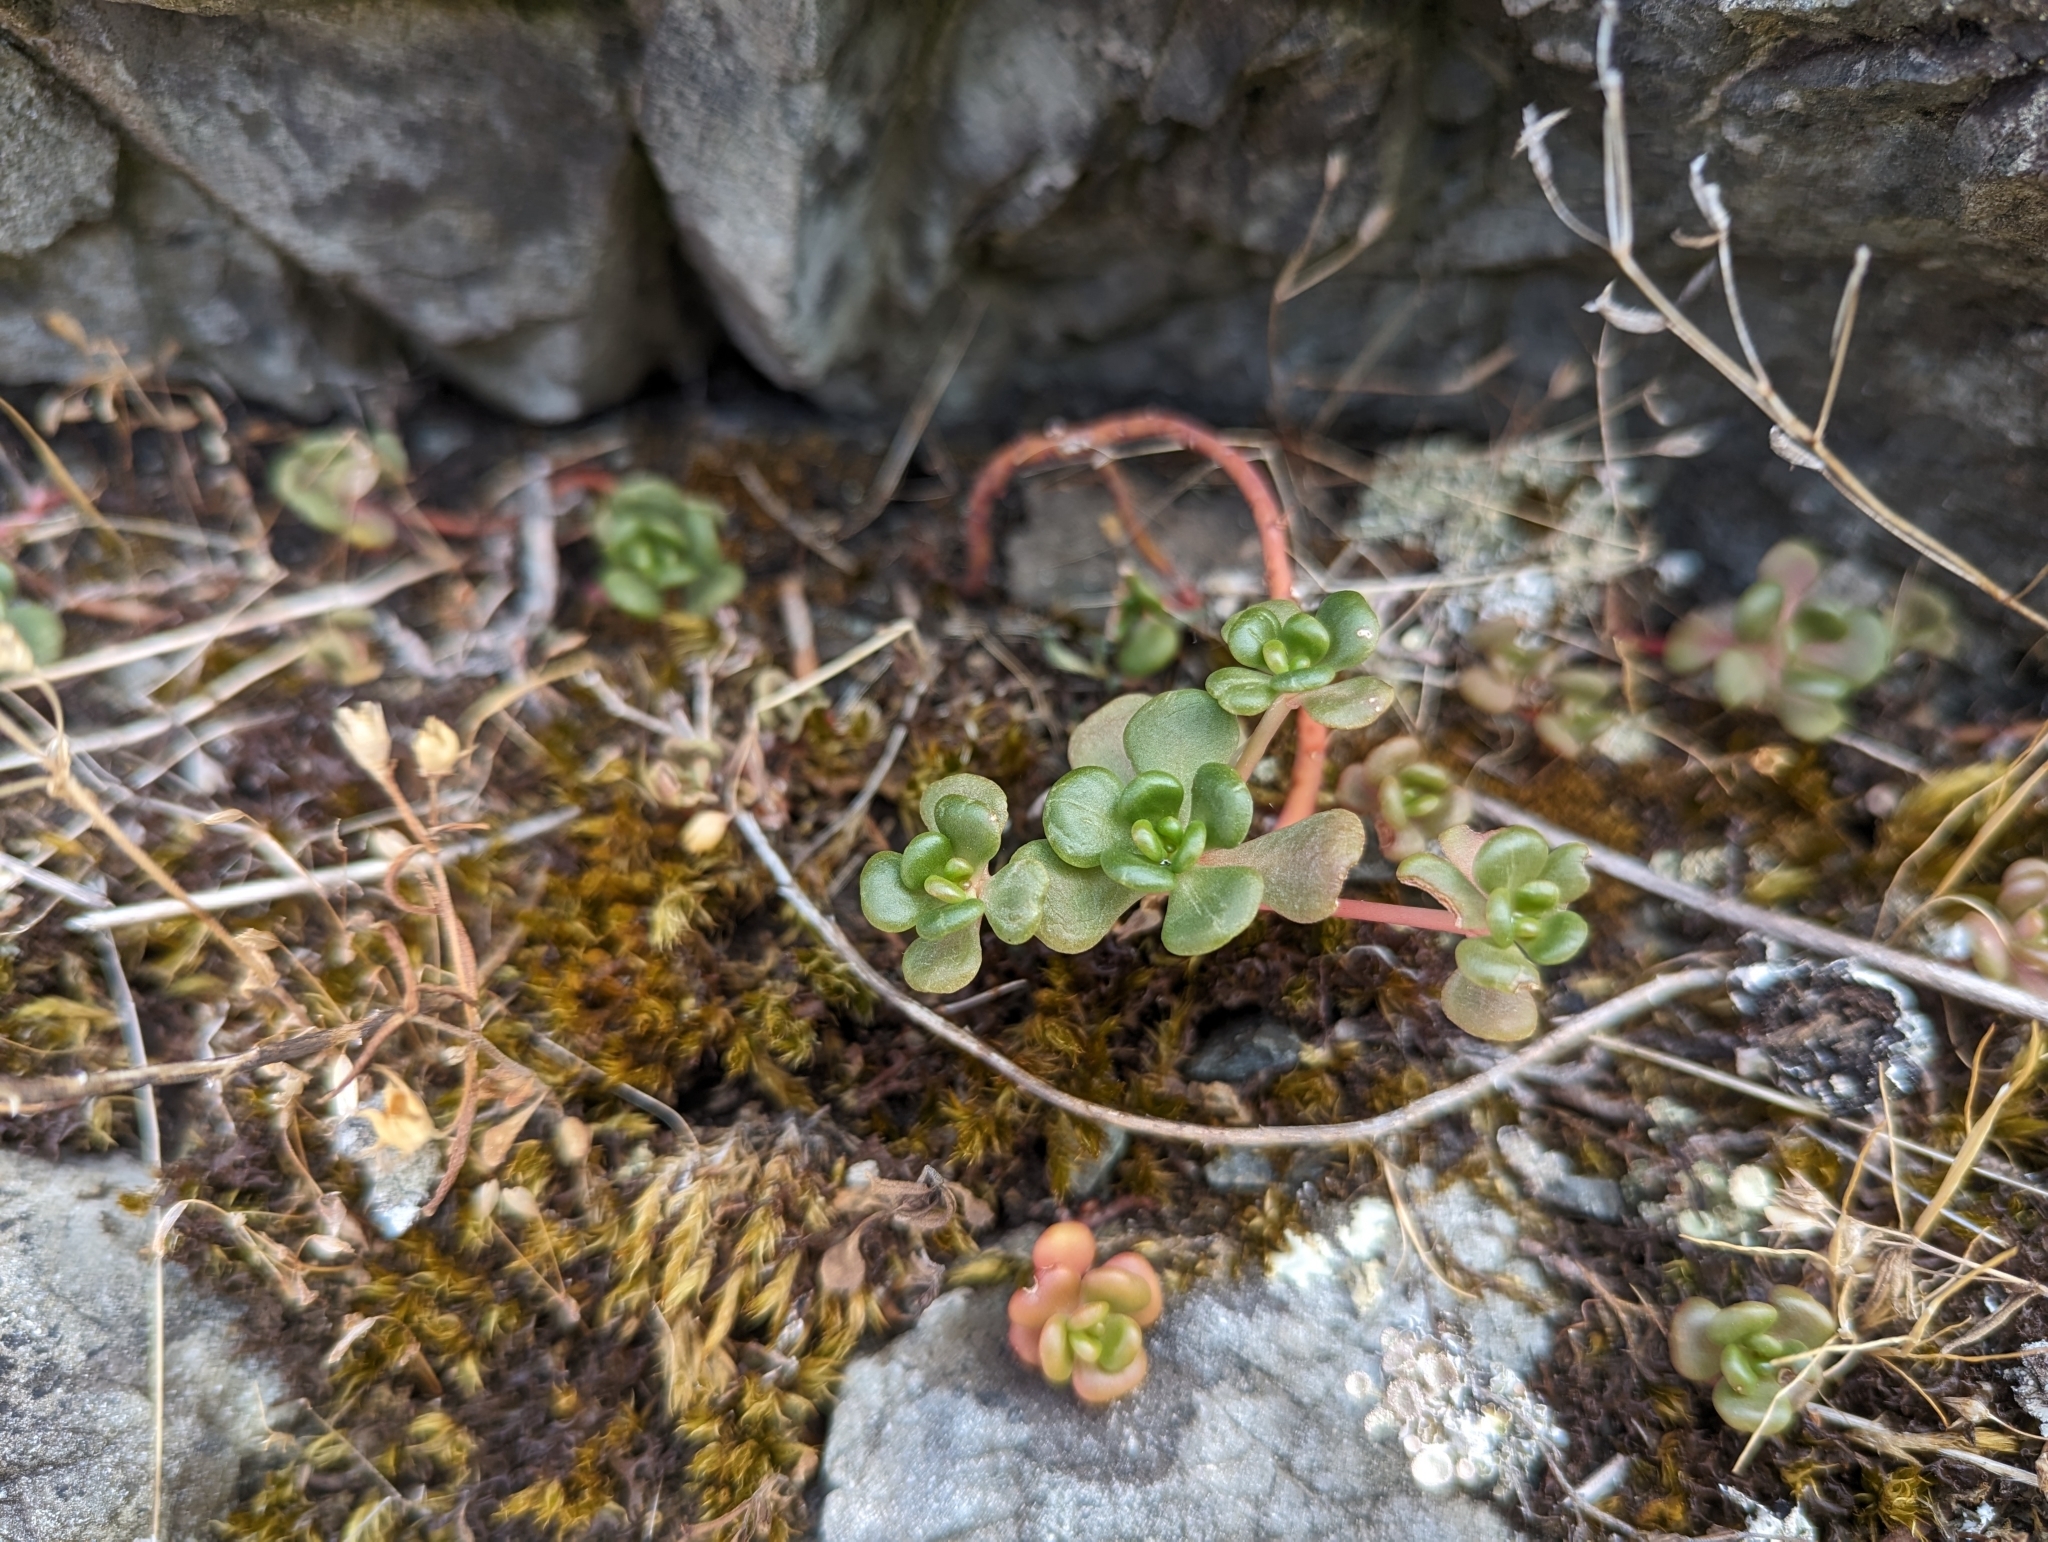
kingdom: Plantae
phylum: Tracheophyta
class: Magnoliopsida
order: Saxifragales
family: Crassulaceae
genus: Sedum
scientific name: Sedum oreganum
